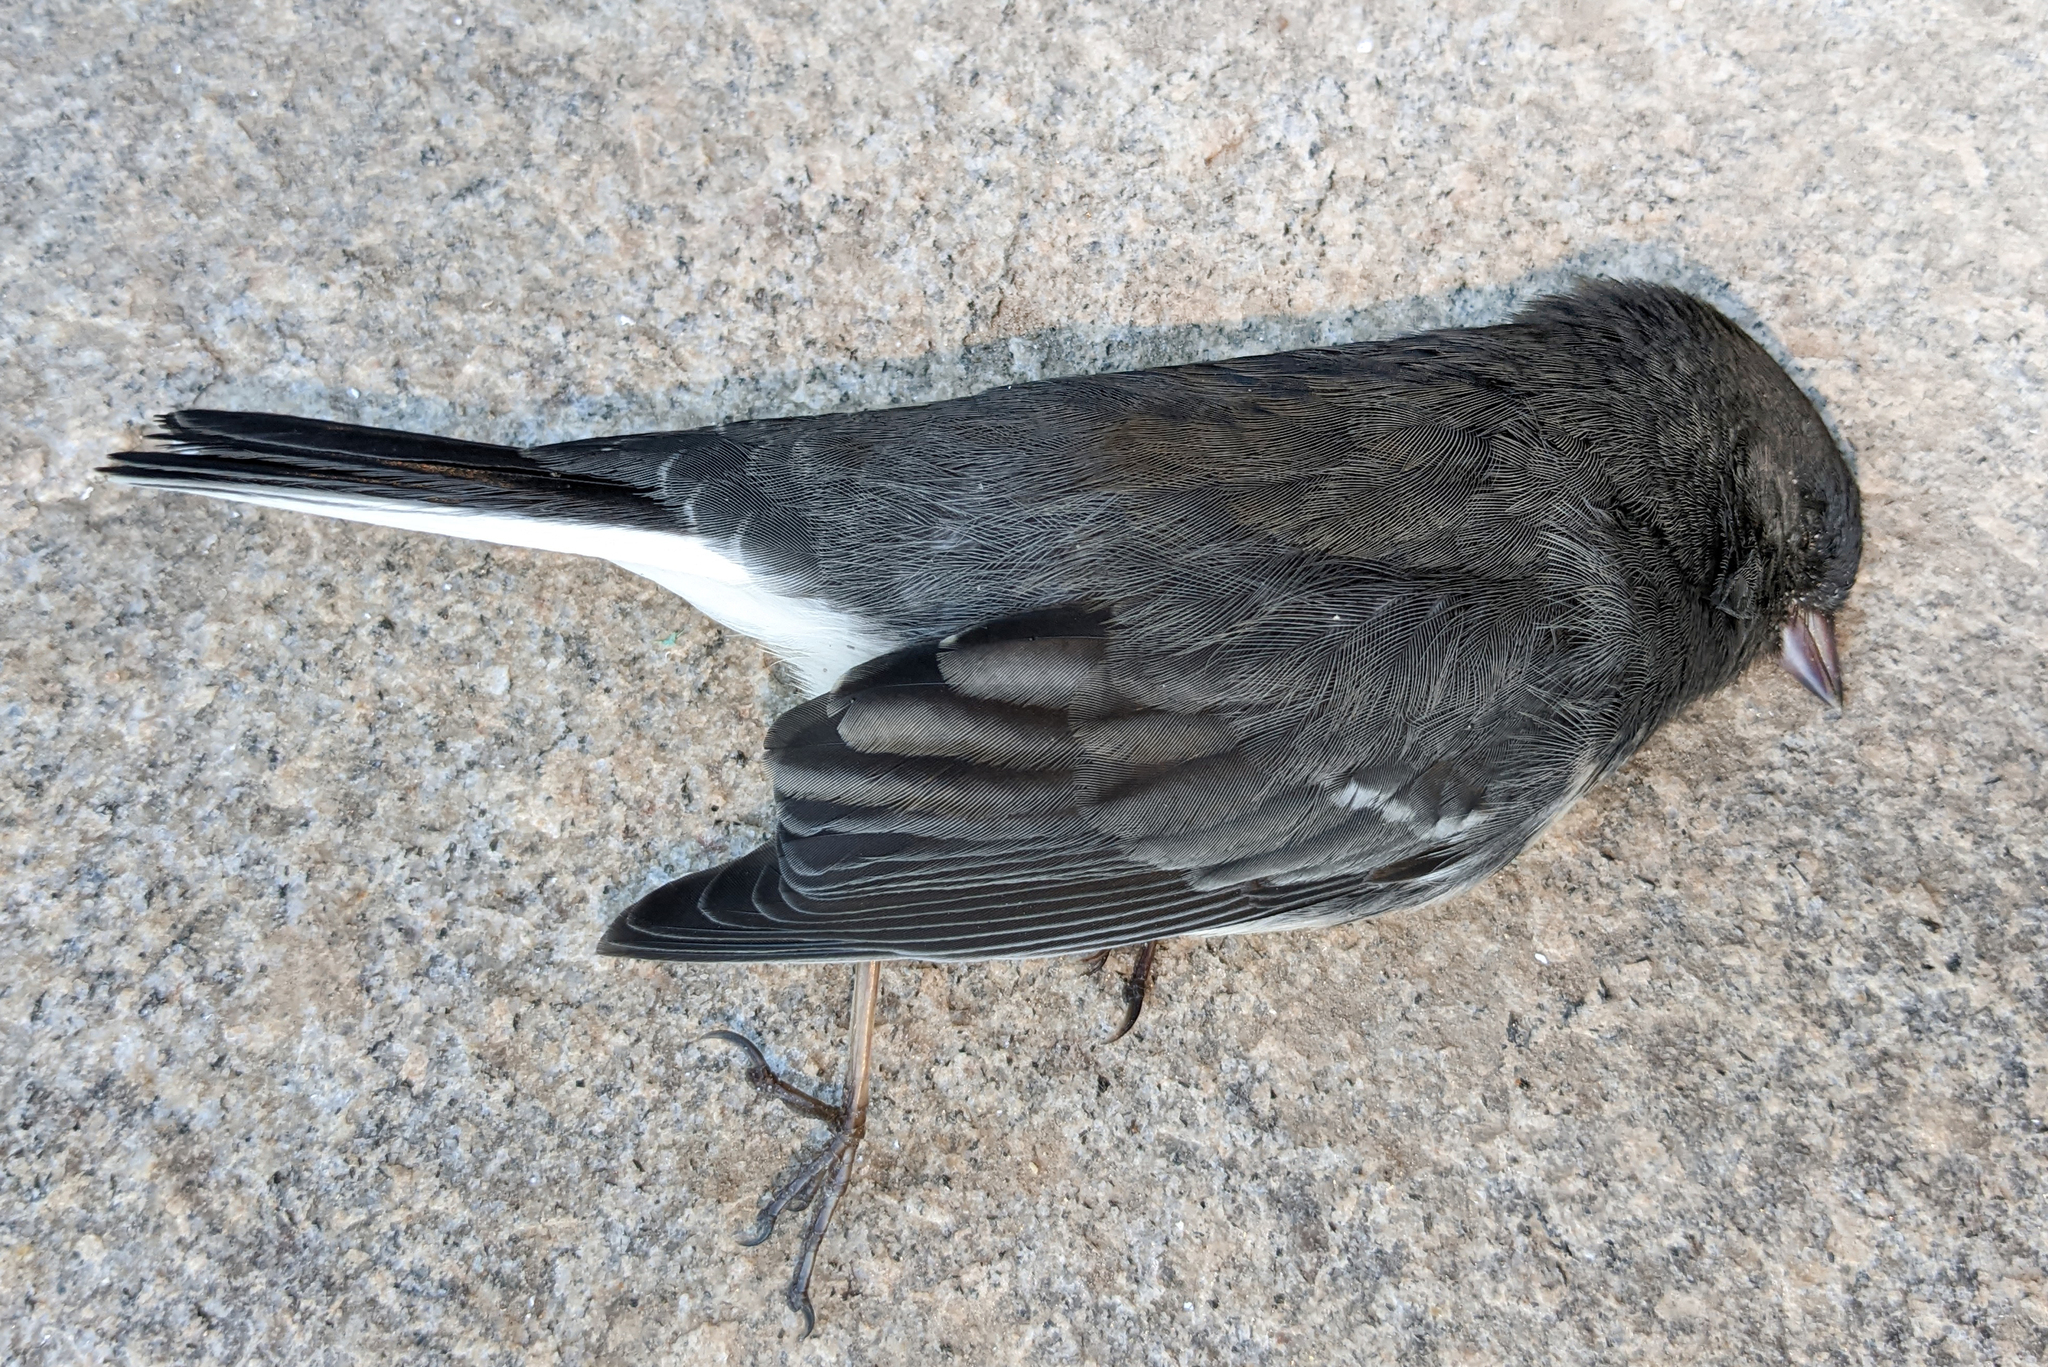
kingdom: Animalia
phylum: Chordata
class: Aves
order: Passeriformes
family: Passerellidae
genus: Junco
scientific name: Junco hyemalis
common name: Dark-eyed junco
